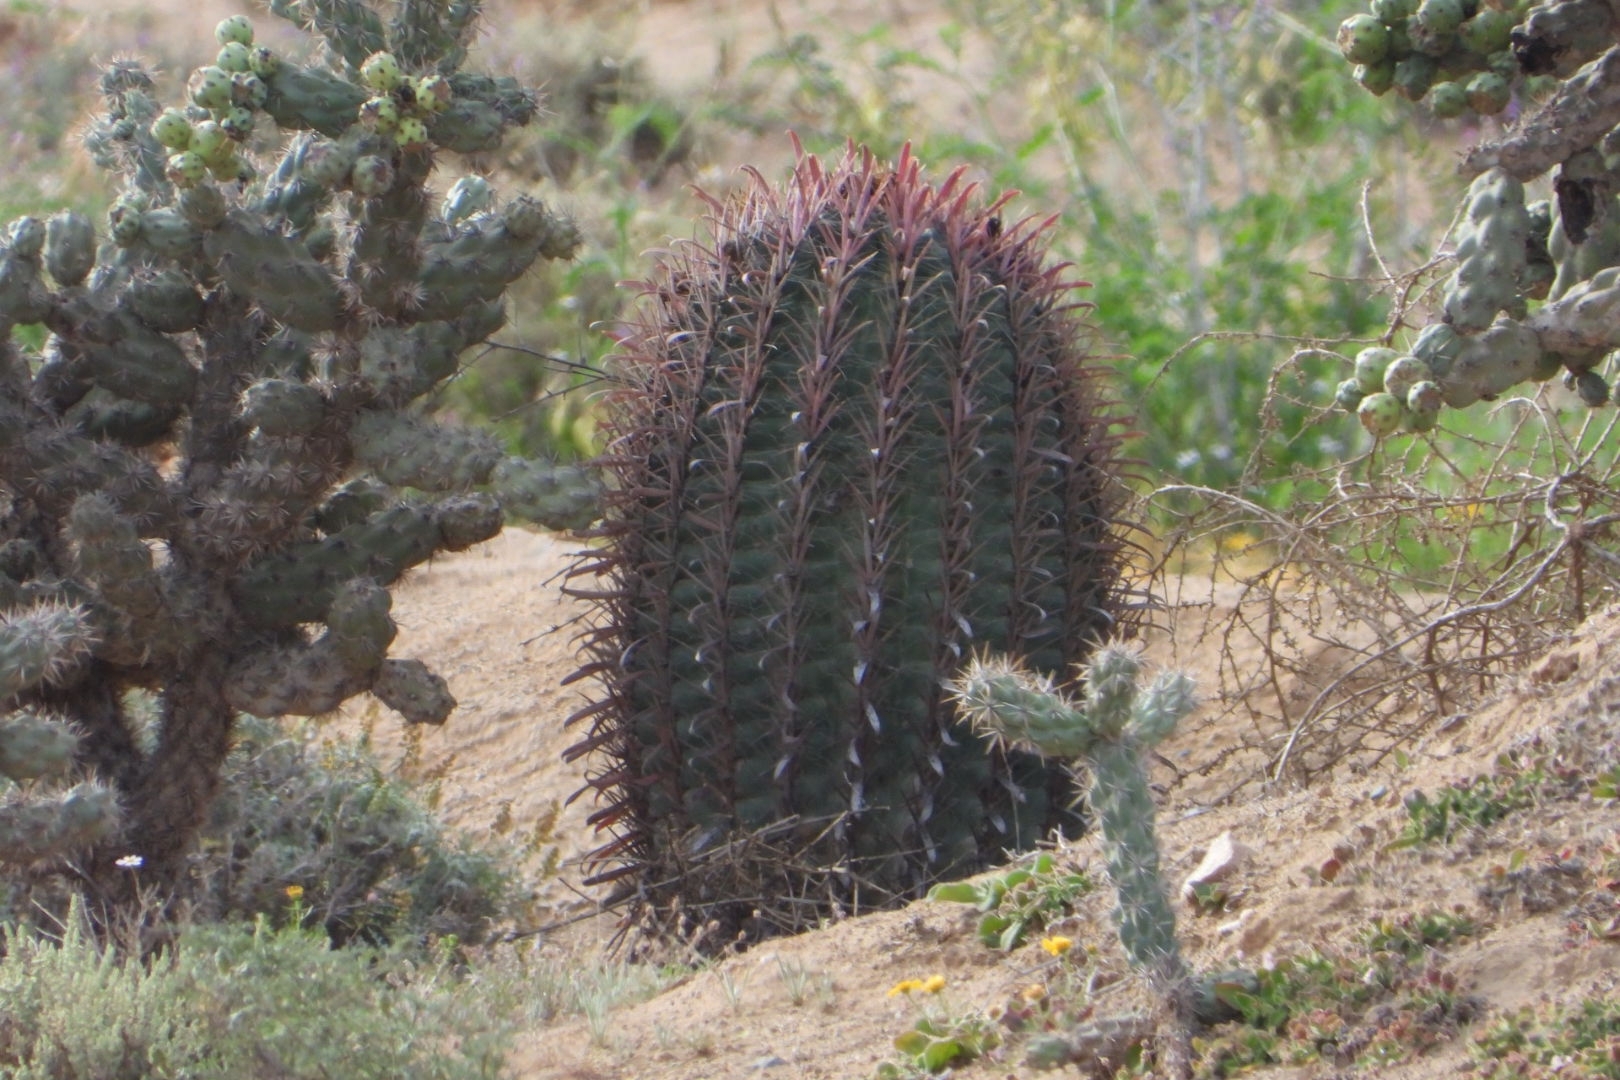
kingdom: Plantae
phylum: Tracheophyta
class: Magnoliopsida
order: Caryophyllales
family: Cactaceae
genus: Ferocactus
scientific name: Ferocactus gracilis
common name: Fire barrel cactus
